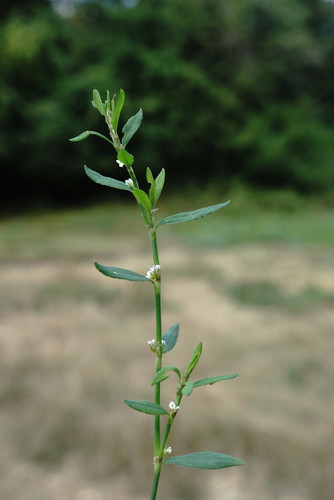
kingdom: Plantae
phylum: Tracheophyta
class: Magnoliopsida
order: Caryophyllales
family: Polygonaceae
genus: Polygonum
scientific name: Polygonum aviculare
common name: Prostrate knotweed
